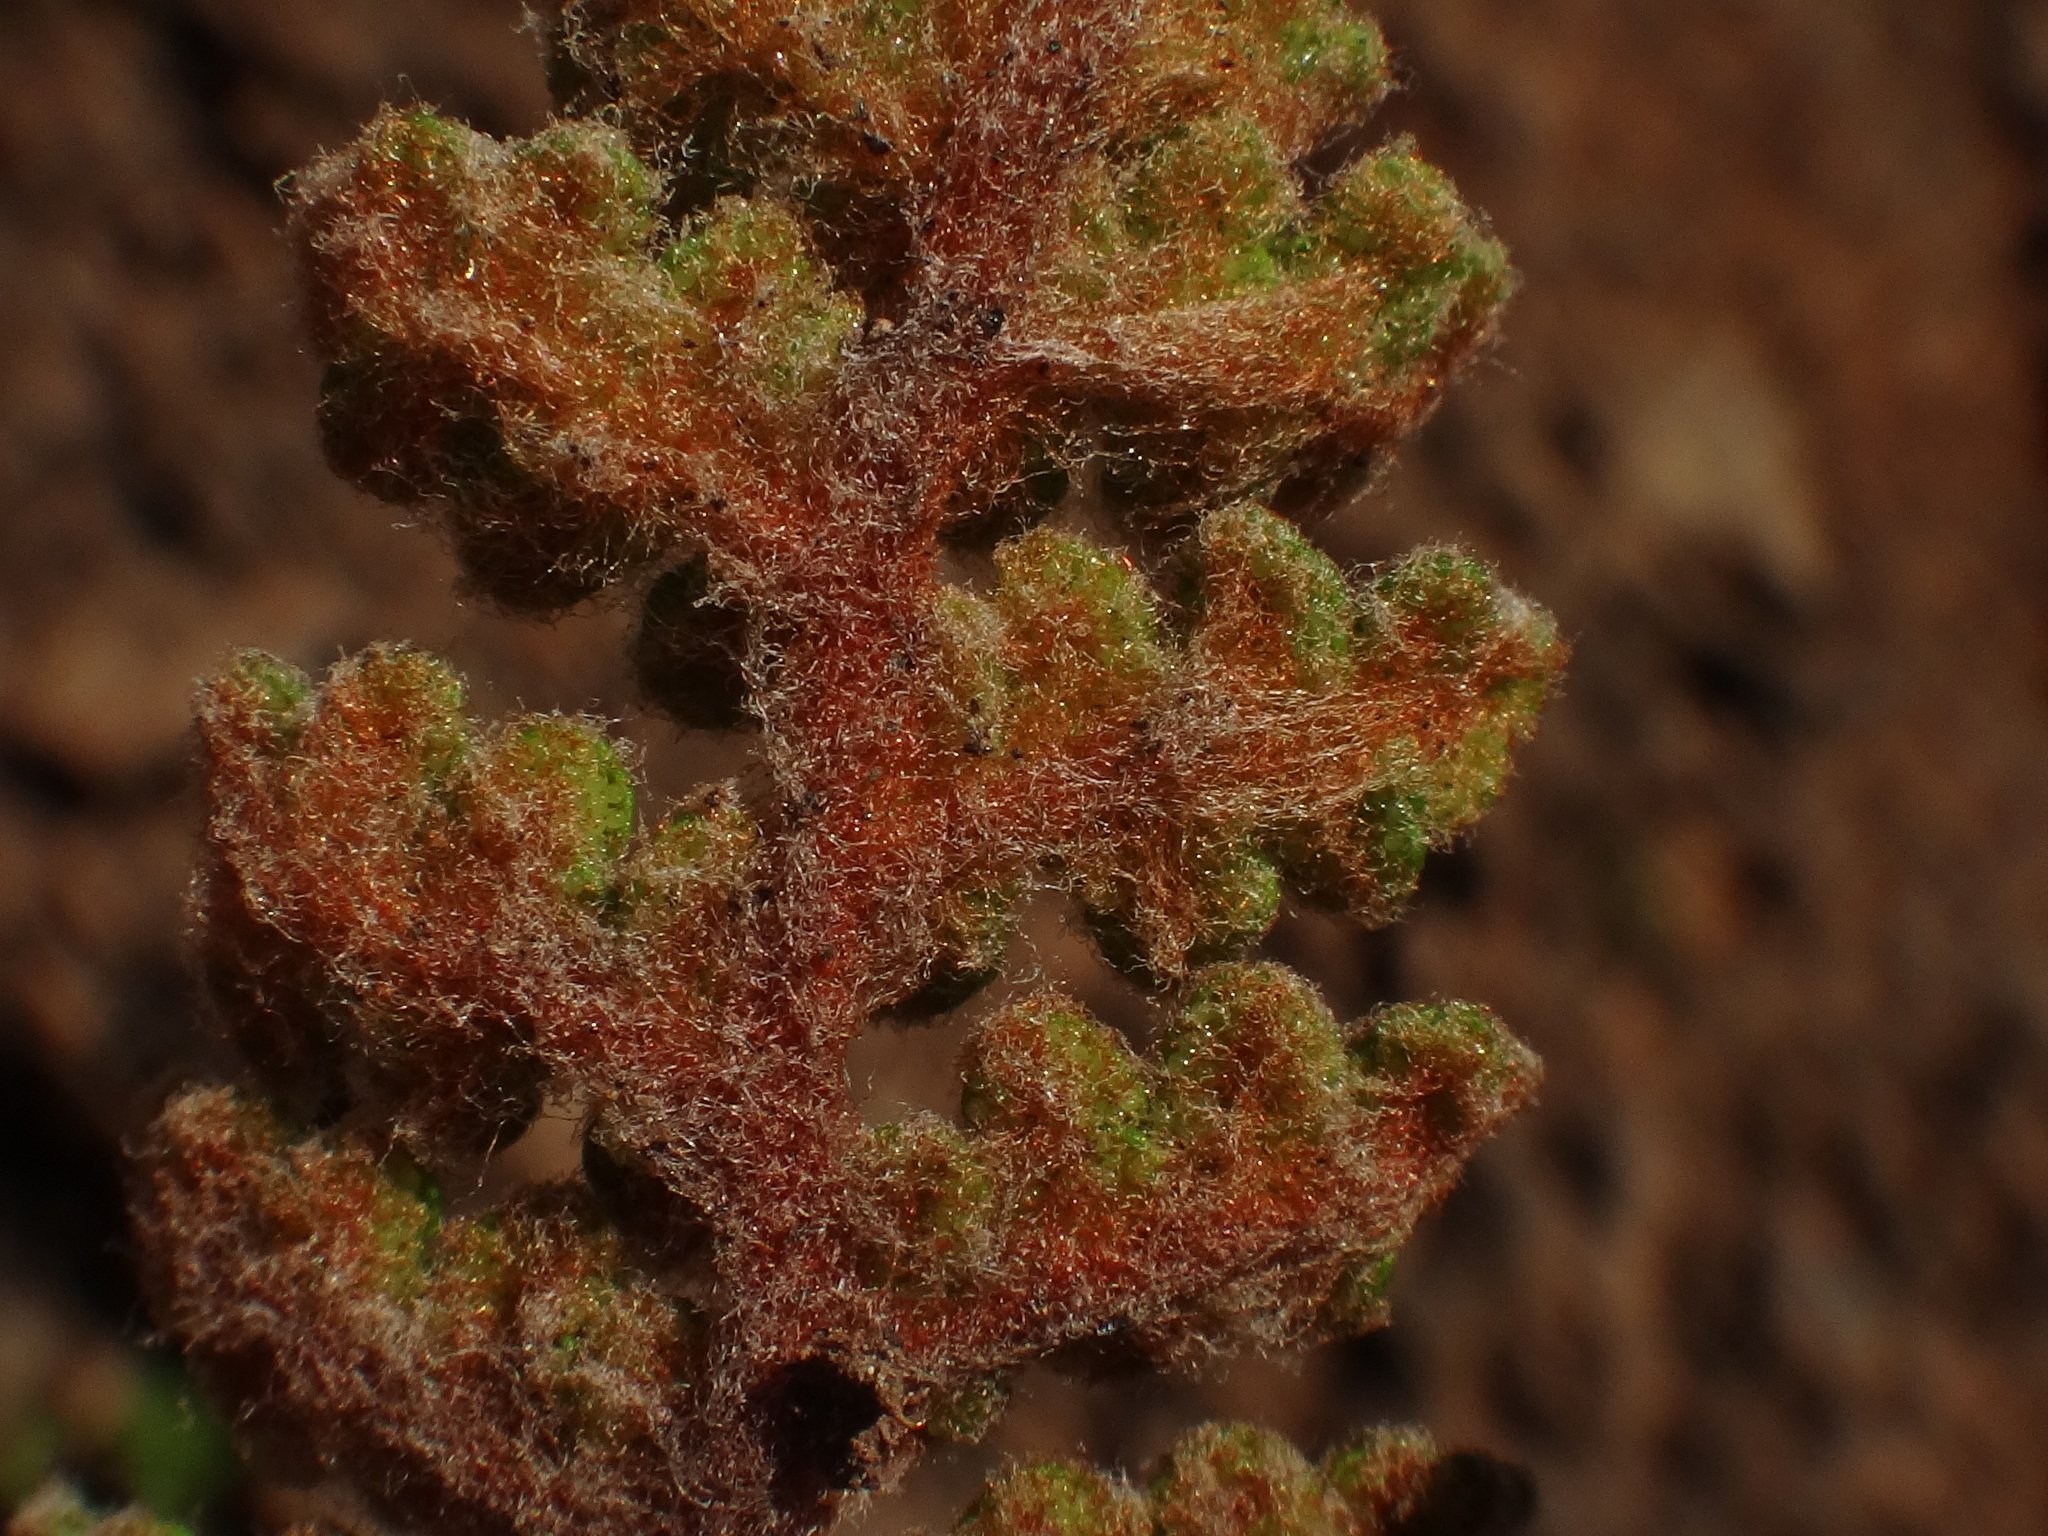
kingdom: Plantae
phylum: Tracheophyta
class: Polypodiopsida
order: Polypodiales
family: Pteridaceae
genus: Cosentinia
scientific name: Cosentinia vellea
